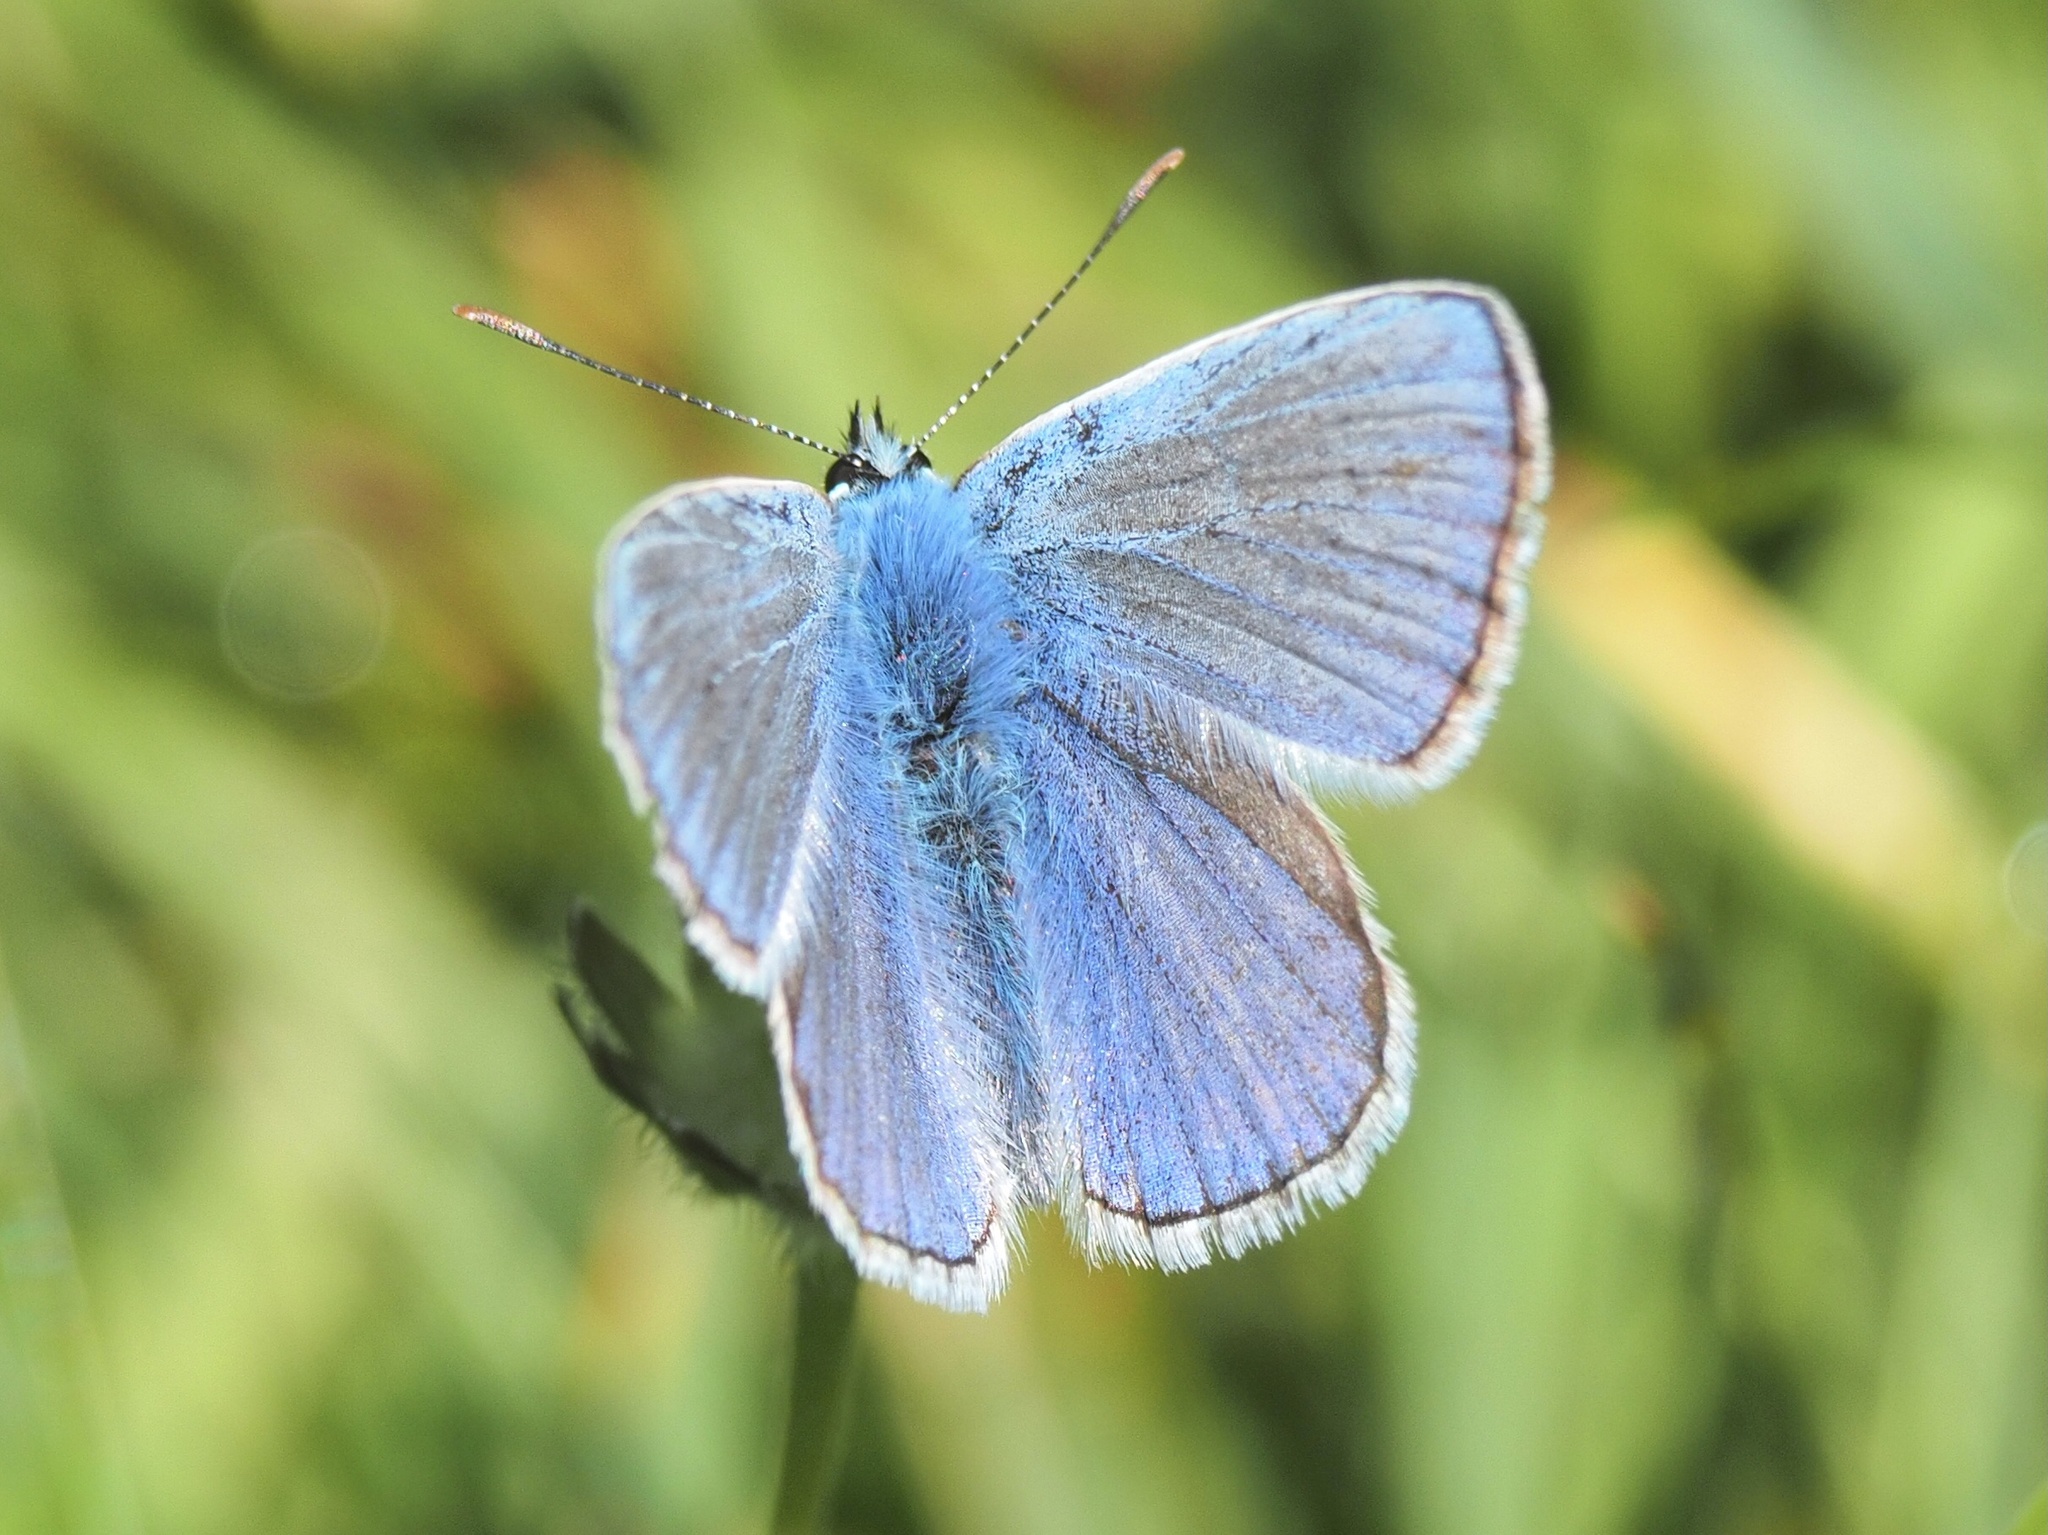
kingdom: Animalia
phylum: Arthropoda
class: Insecta
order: Lepidoptera
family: Lycaenidae
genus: Polyommatus
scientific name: Polyommatus icarus
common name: Common blue
